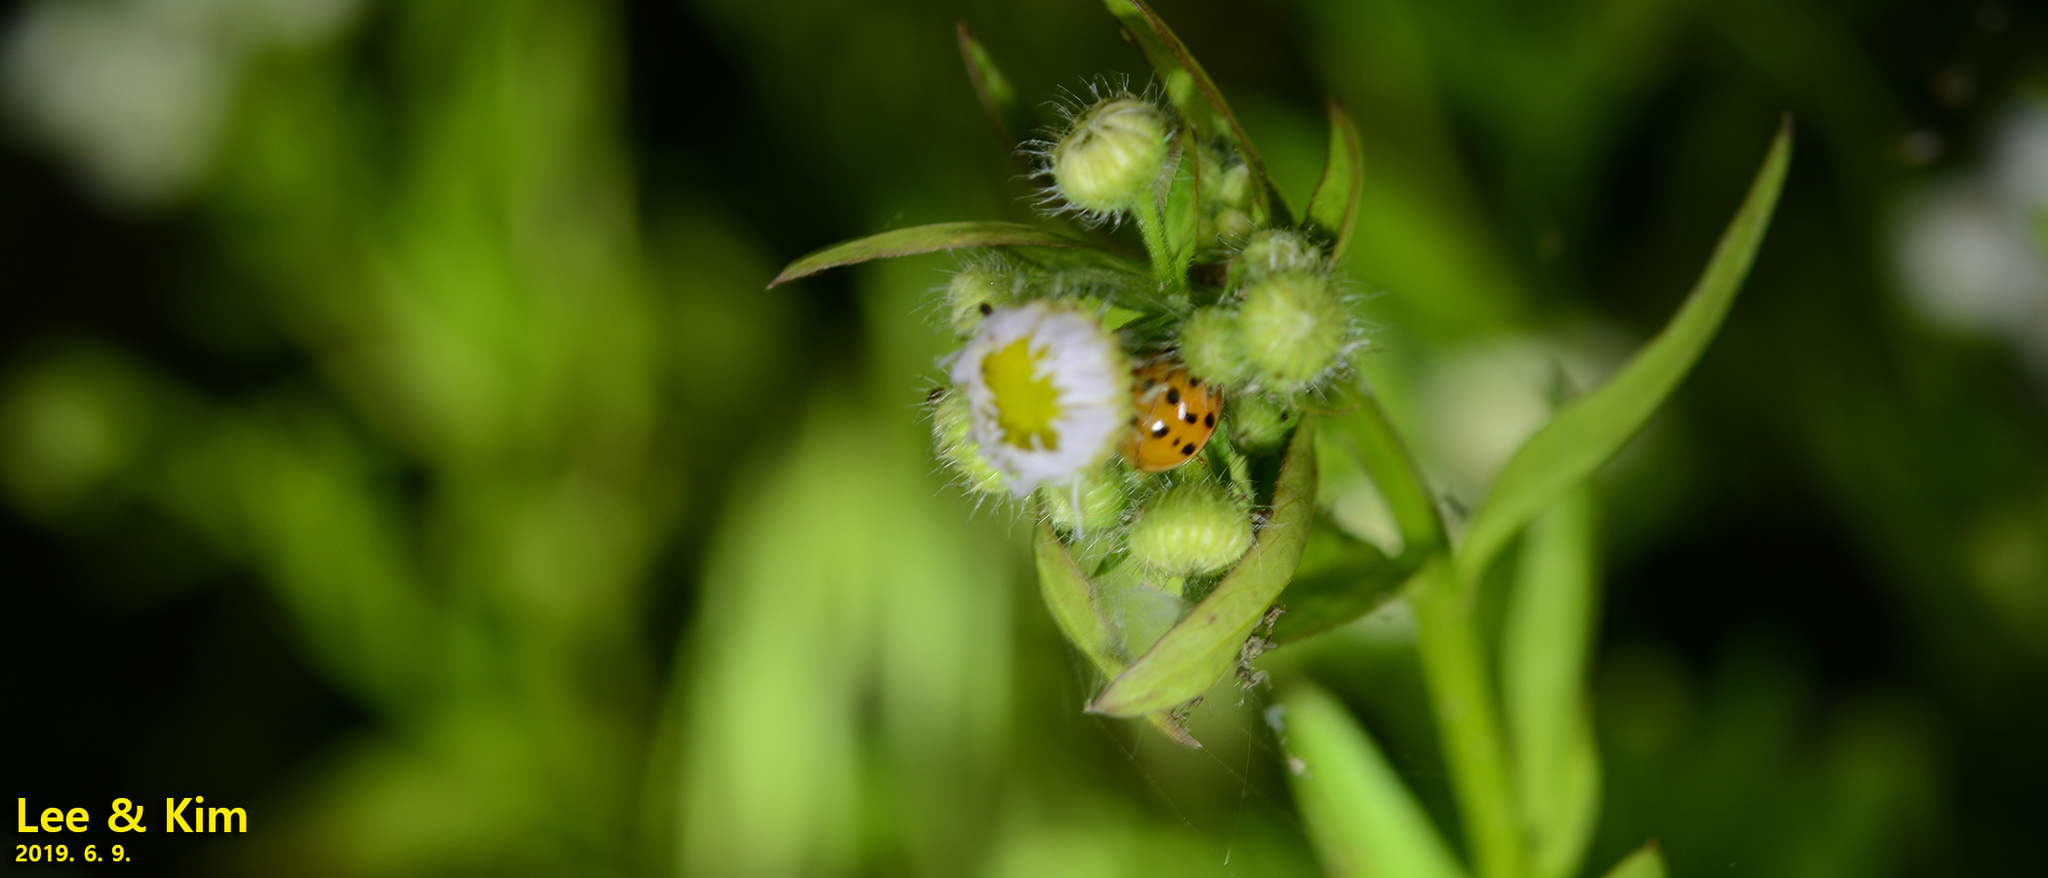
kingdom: Animalia
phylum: Arthropoda
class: Insecta
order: Coleoptera
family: Coccinellidae
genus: Harmonia
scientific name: Harmonia axyridis
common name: Harlequin ladybird
